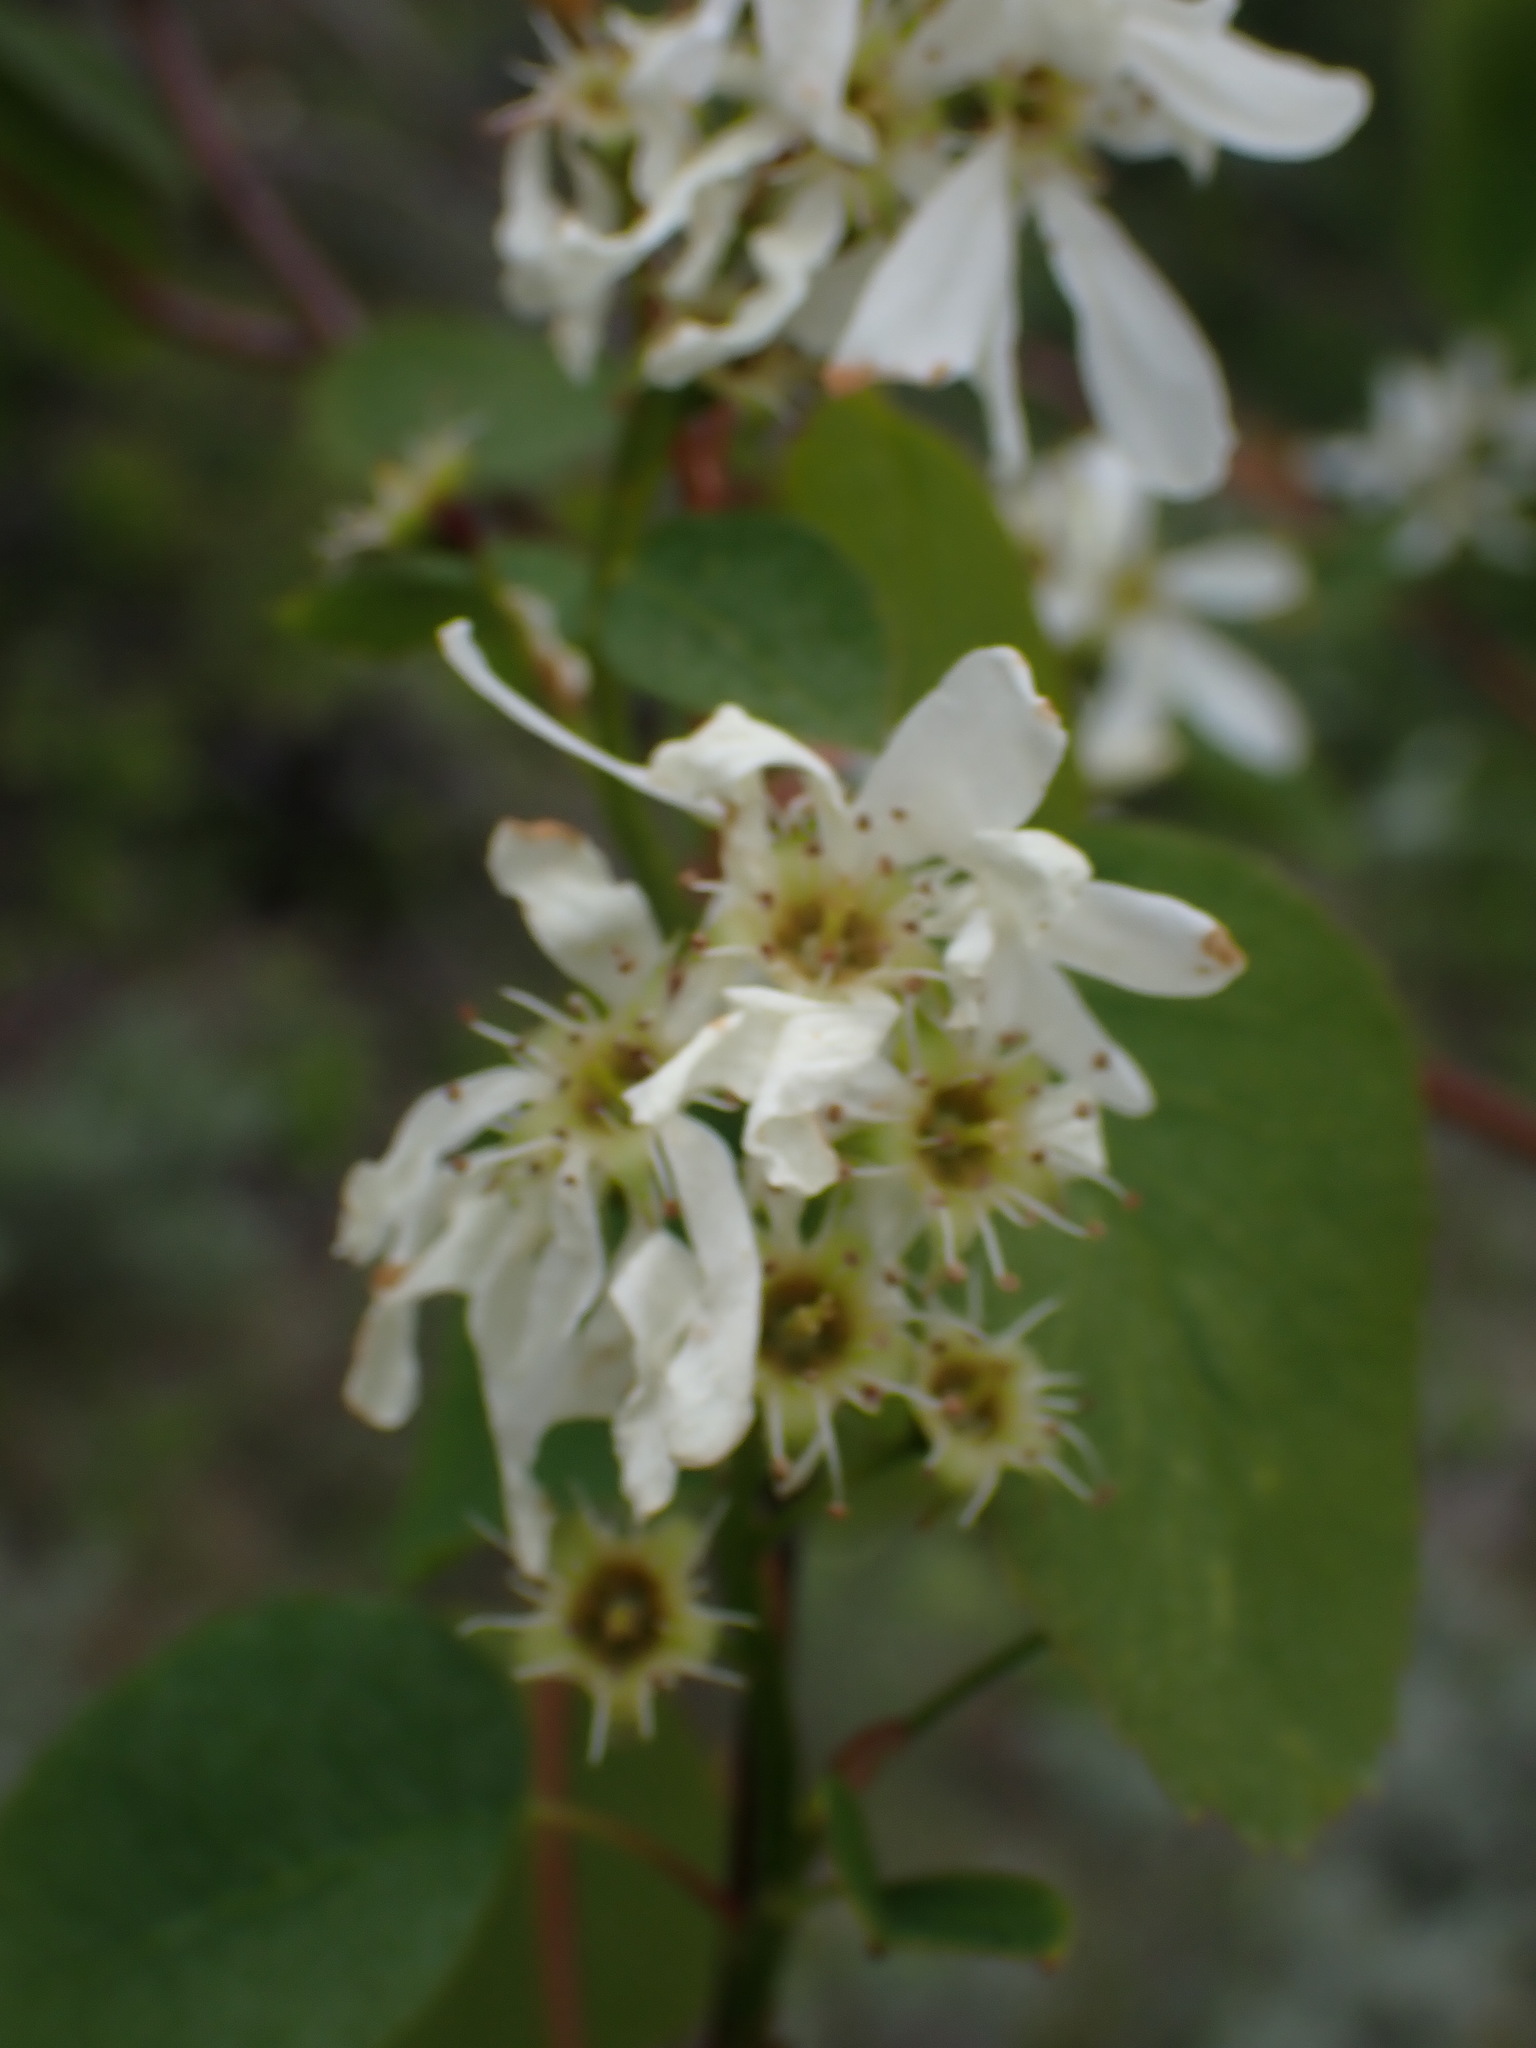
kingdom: Plantae
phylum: Tracheophyta
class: Magnoliopsida
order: Rosales
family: Rosaceae
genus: Amelanchier
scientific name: Amelanchier alnifolia
